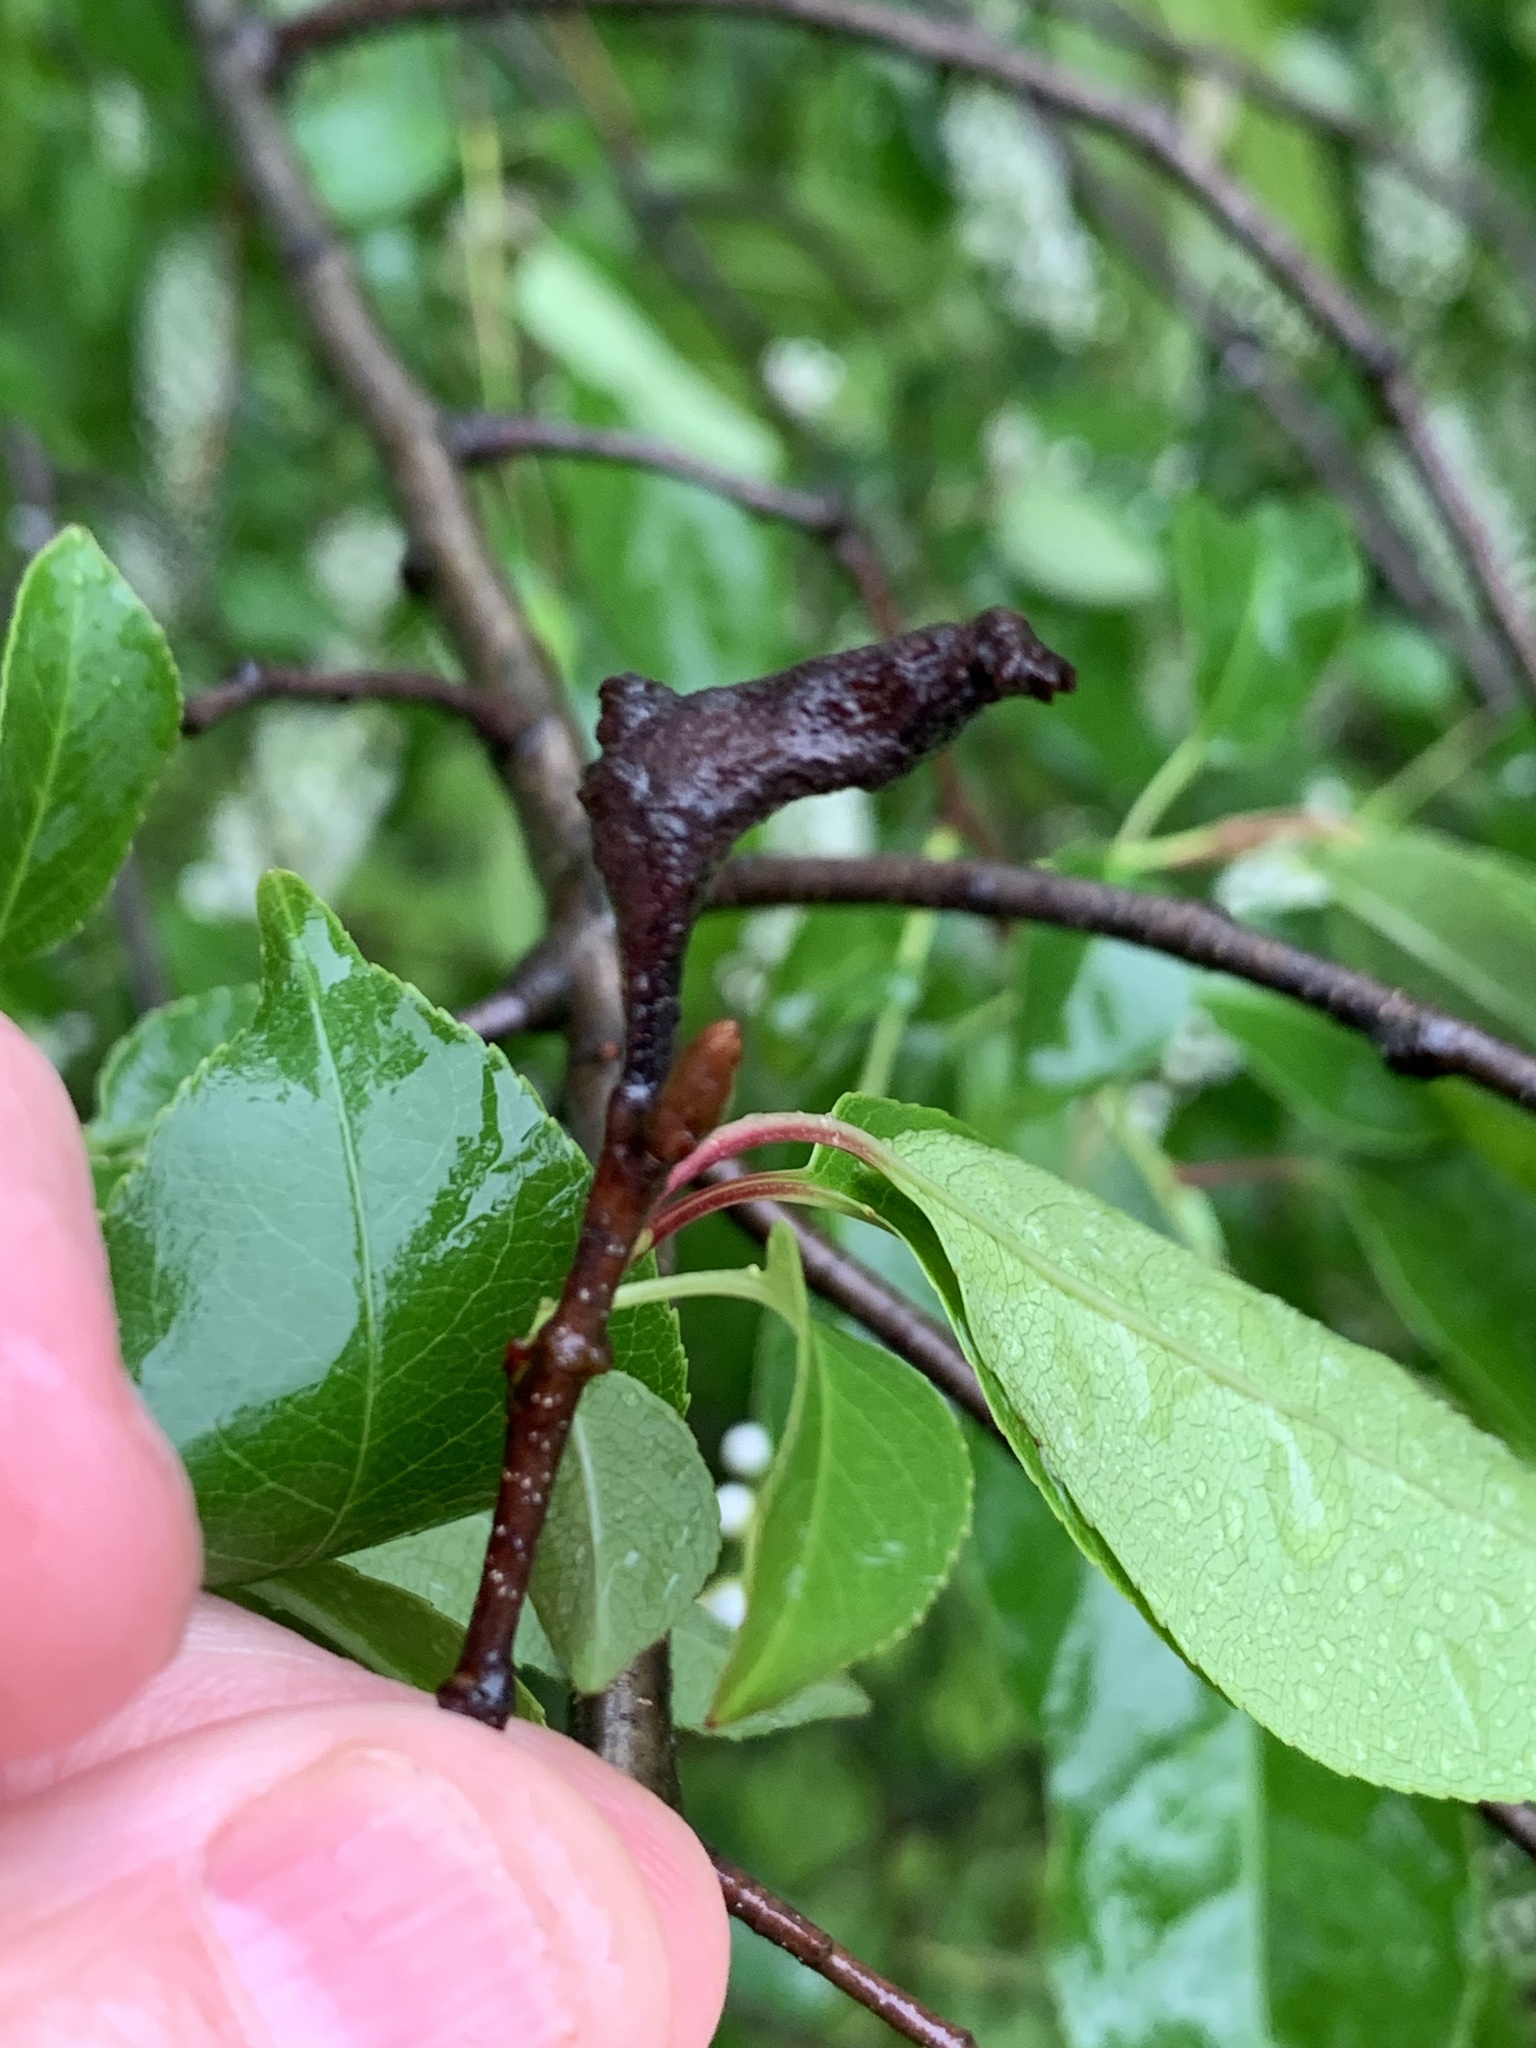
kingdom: Animalia
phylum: Arthropoda
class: Insecta
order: Diptera
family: Cecidomyiidae
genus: Contarinia
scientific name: Contarinia cerasiserotinae
